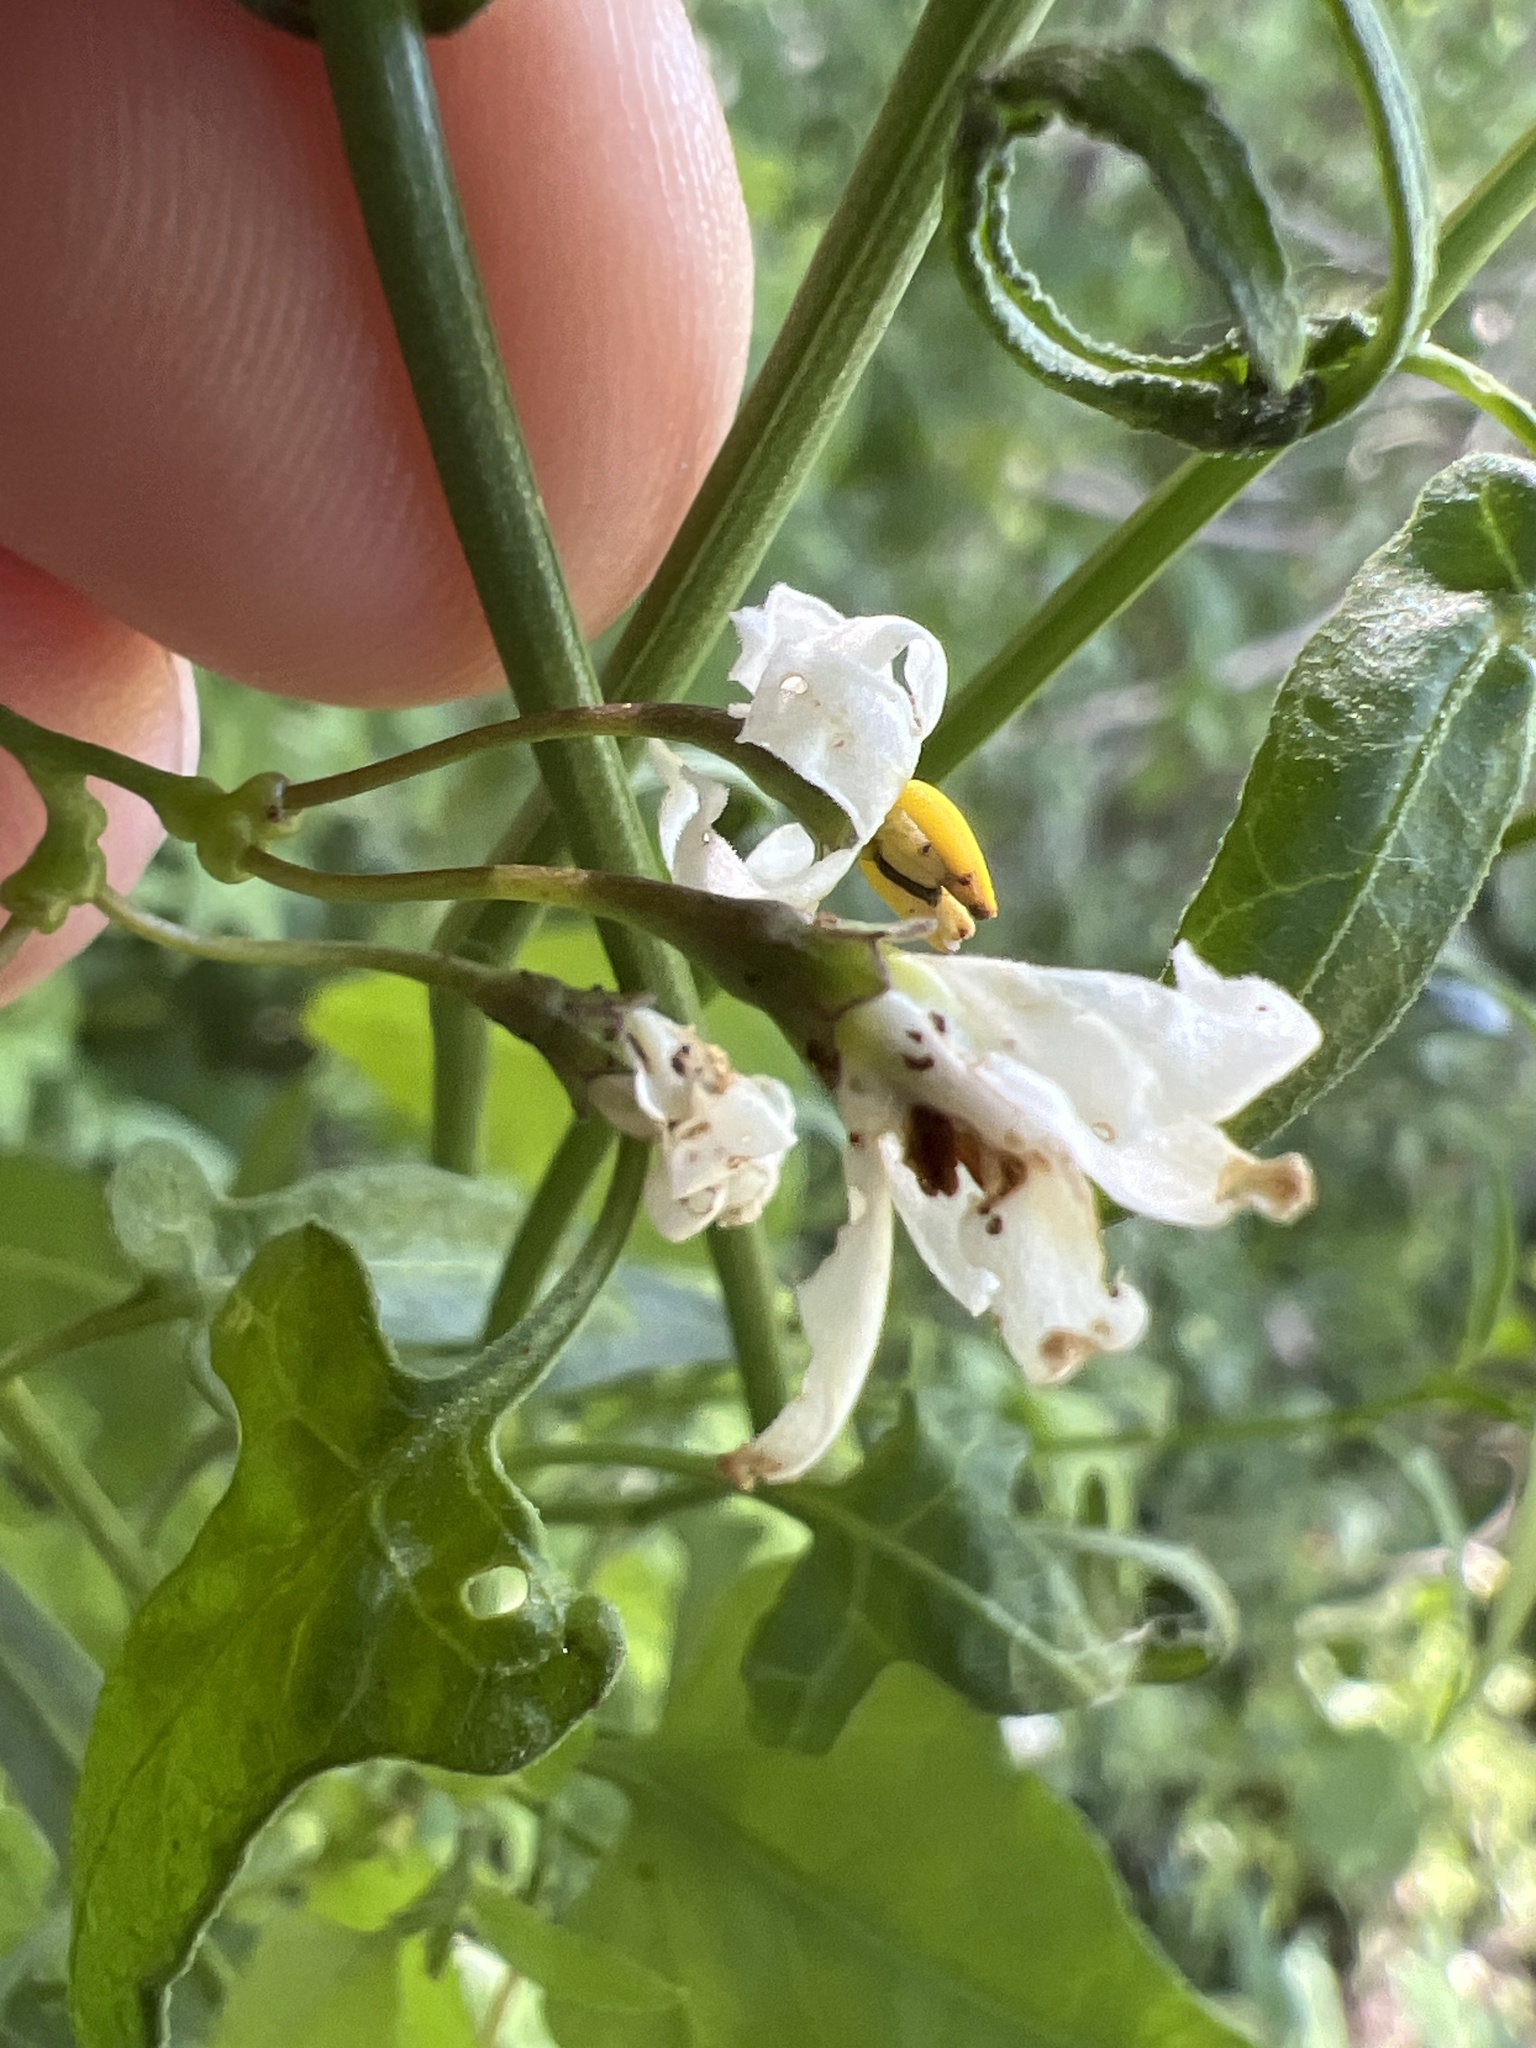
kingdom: Plantae
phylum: Tracheophyta
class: Magnoliopsida
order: Solanales
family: Solanaceae
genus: Solanum
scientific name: Solanum triquetrum
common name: Texas nightshade
